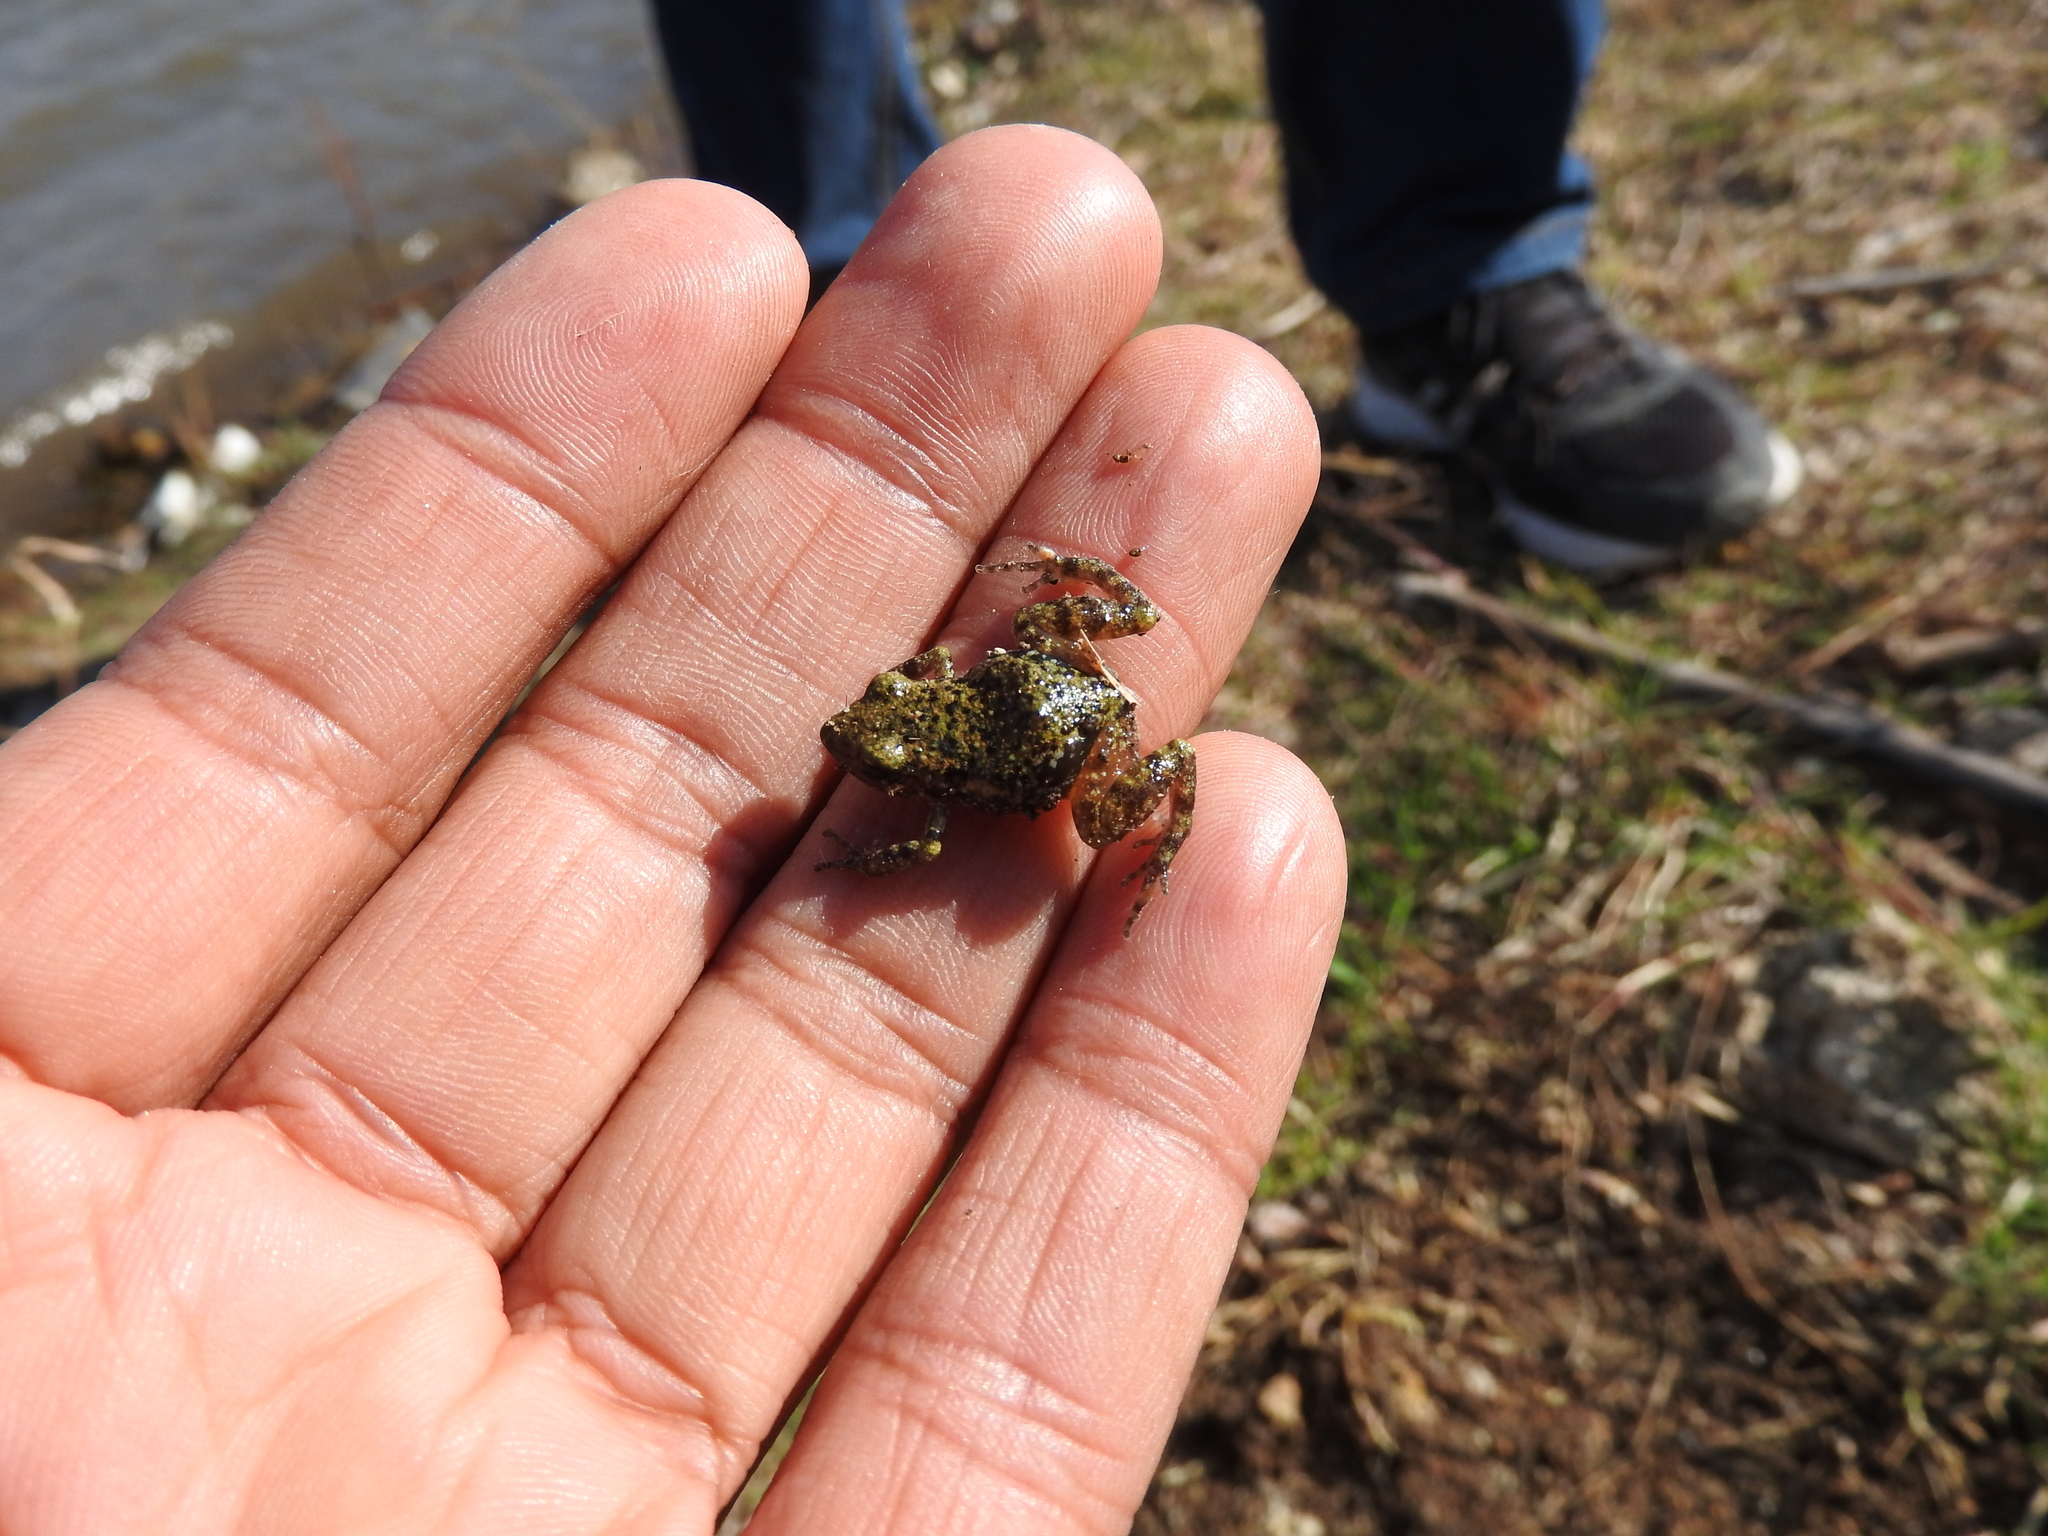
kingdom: Animalia
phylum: Chordata
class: Amphibia
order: Anura
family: Eleutherodactylidae
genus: Eleutherodactylus
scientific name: Eleutherodactylus guttilatus
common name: Spotted chirping frog
